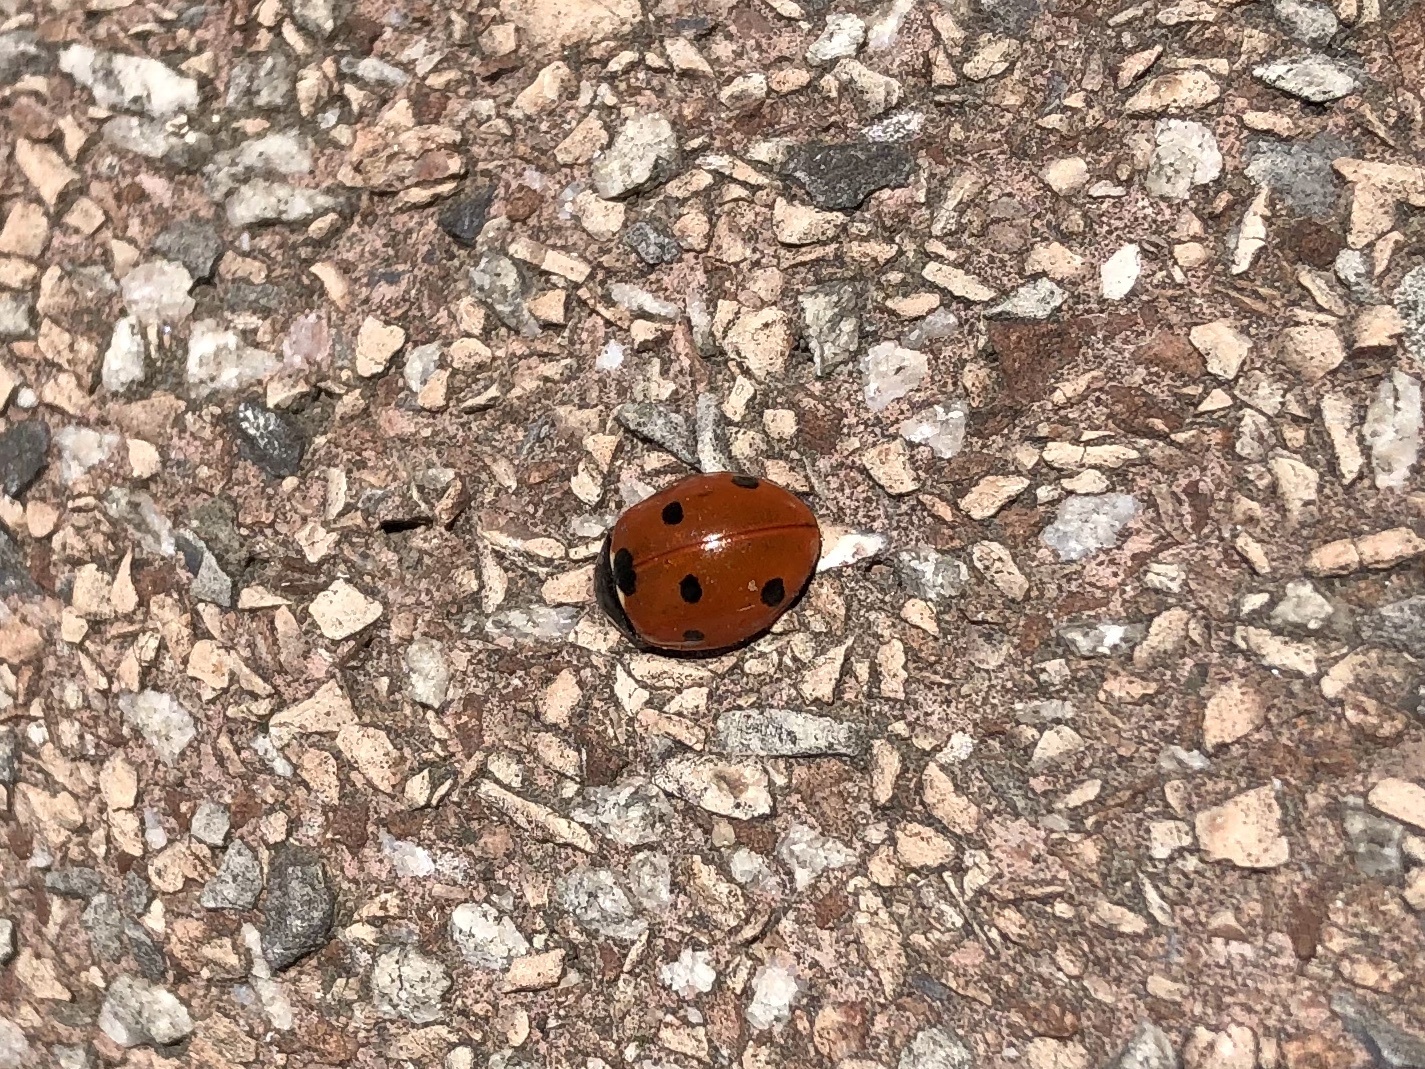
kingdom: Animalia
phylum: Arthropoda
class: Insecta
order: Coleoptera
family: Coccinellidae
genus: Coccinella
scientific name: Coccinella septempunctata
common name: Sevenspotted lady beetle
